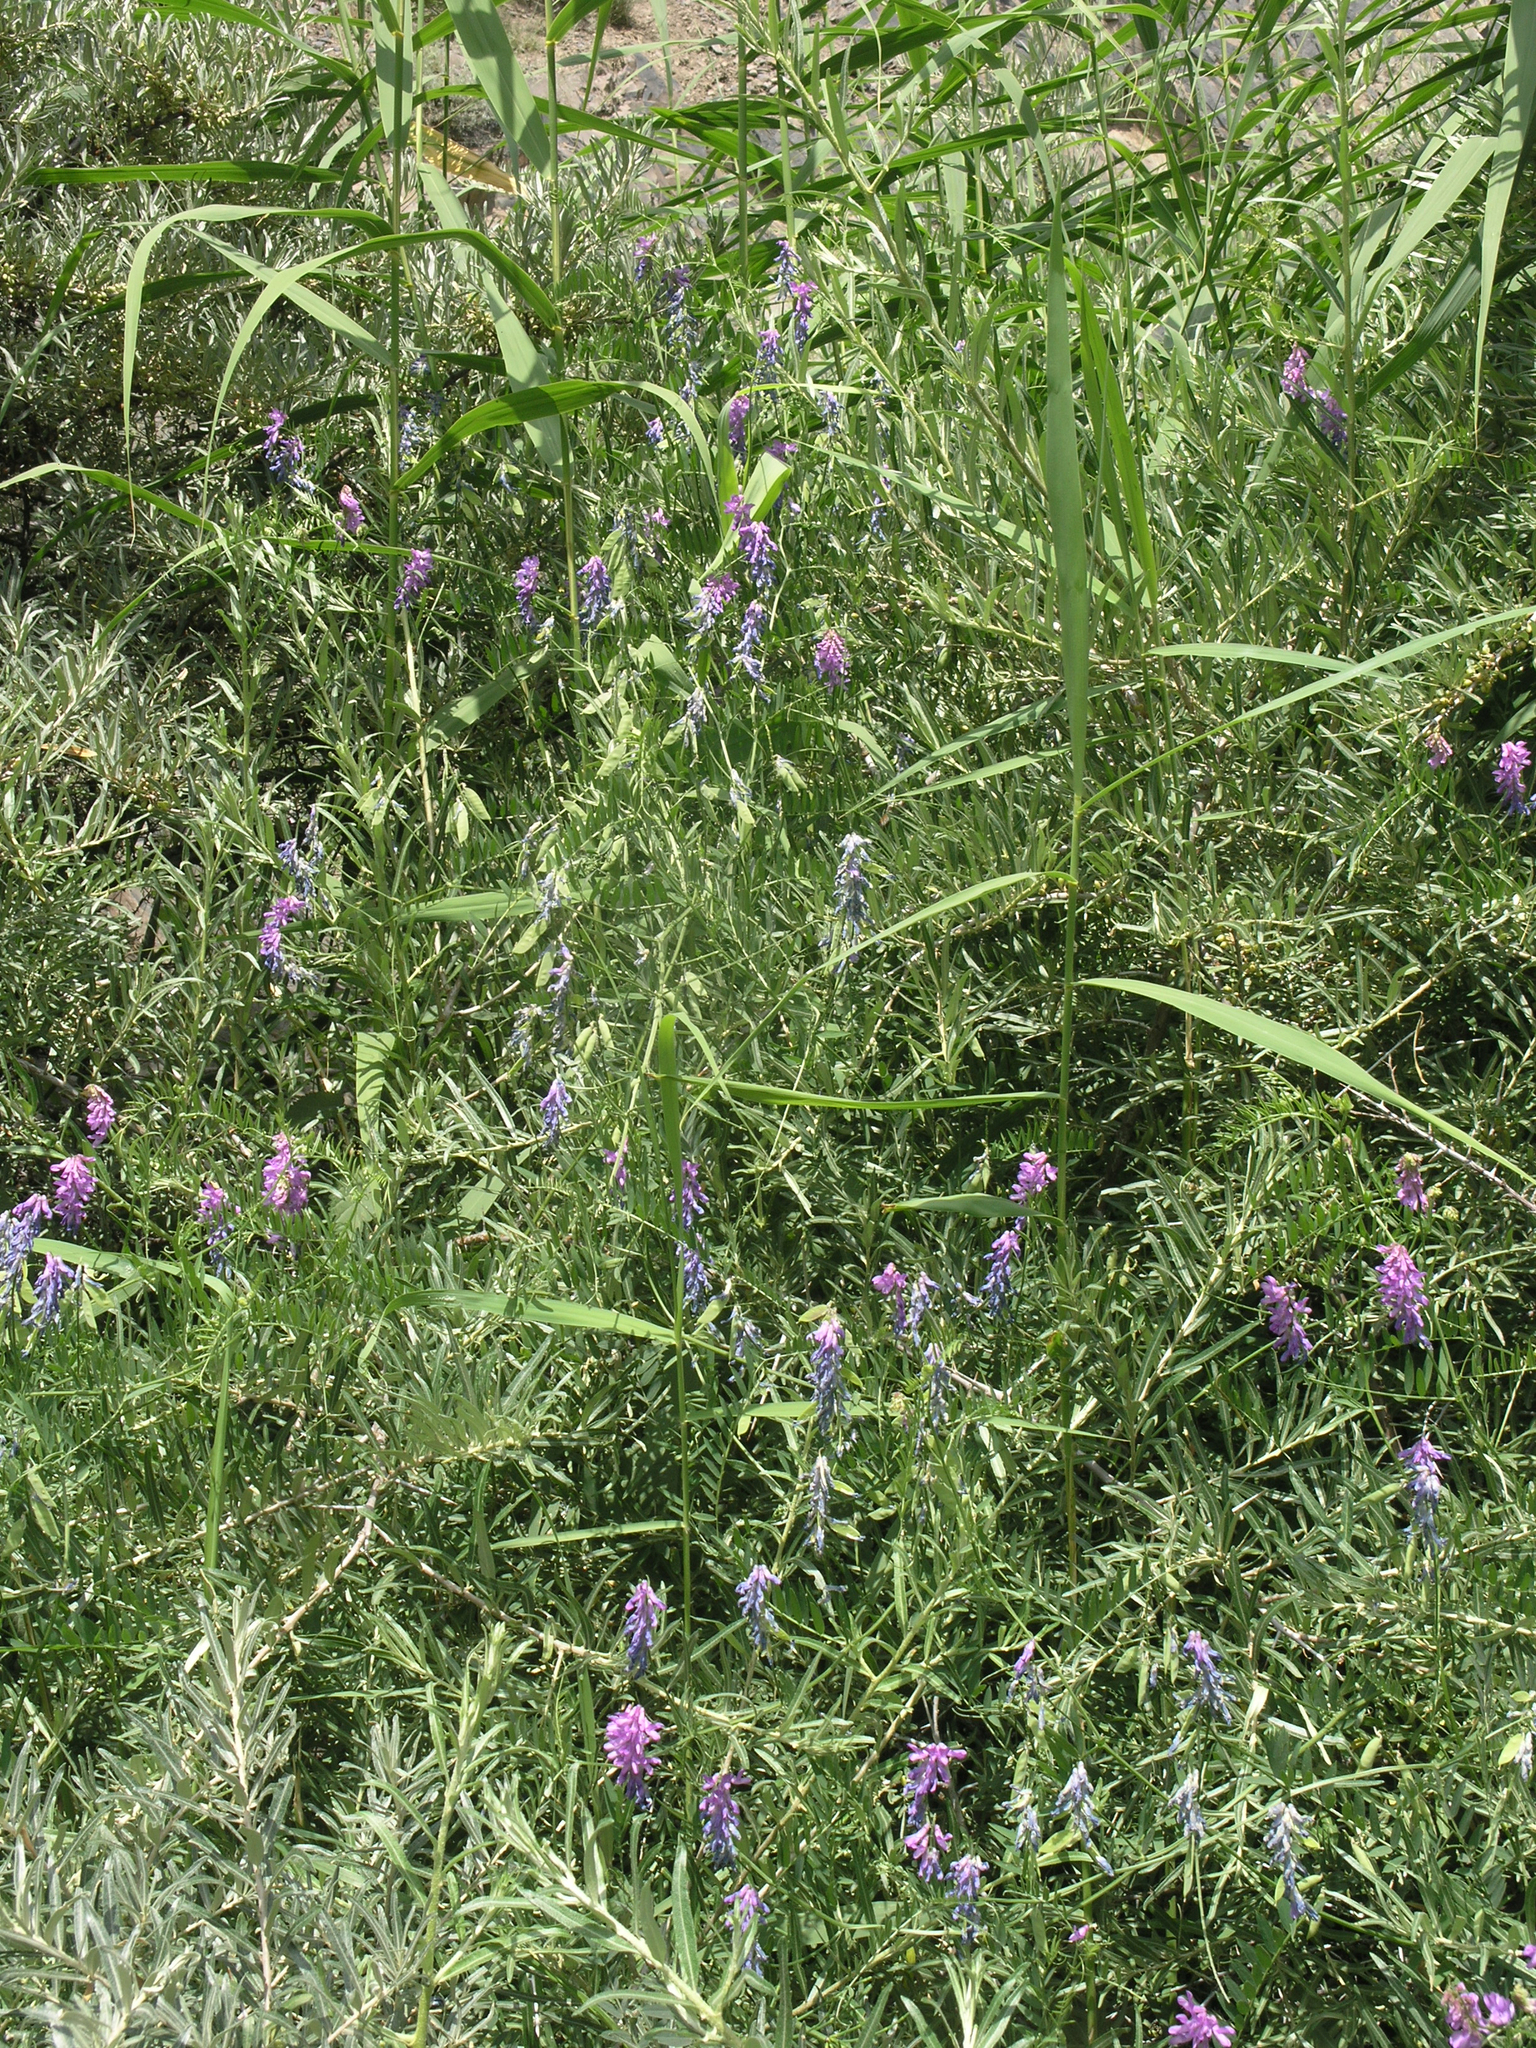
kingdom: Plantae
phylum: Tracheophyta
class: Magnoliopsida
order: Fabales
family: Fabaceae
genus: Vicia
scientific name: Vicia cracca
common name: Bird vetch
